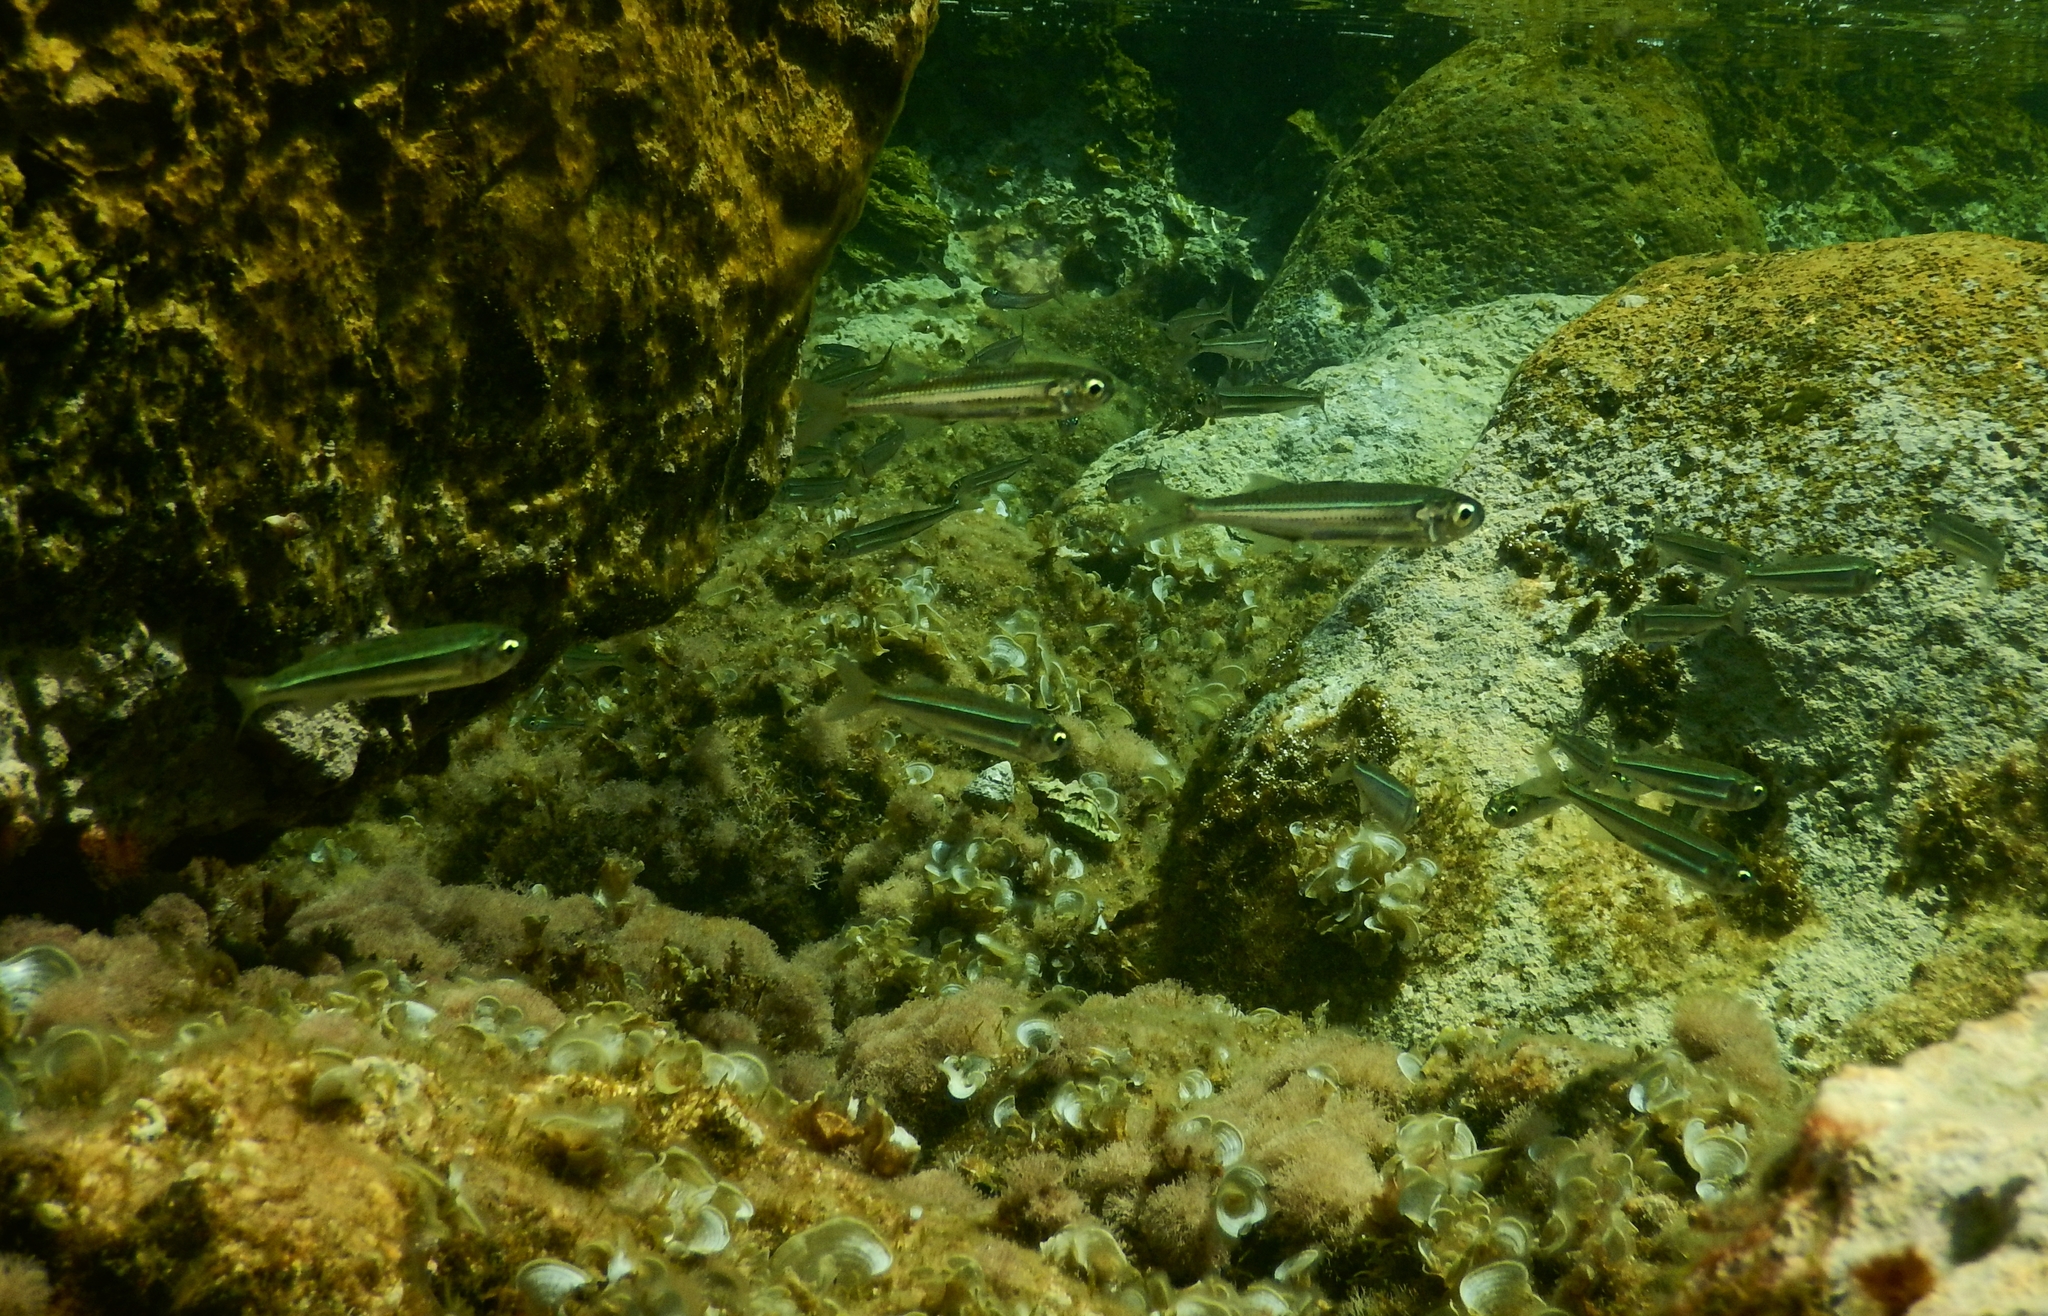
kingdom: Animalia
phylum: Chordata
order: Atheriniformes
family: Atherinidae
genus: Atherina
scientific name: Atherina boyeri
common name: Big-scale sand smelt
